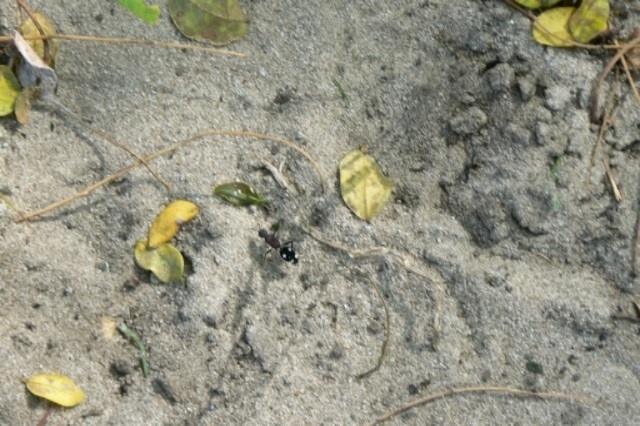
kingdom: Animalia
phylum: Arthropoda
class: Insecta
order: Hymenoptera
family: Mutillidae
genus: Dolichomutilla
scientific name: Dolichomutilla
